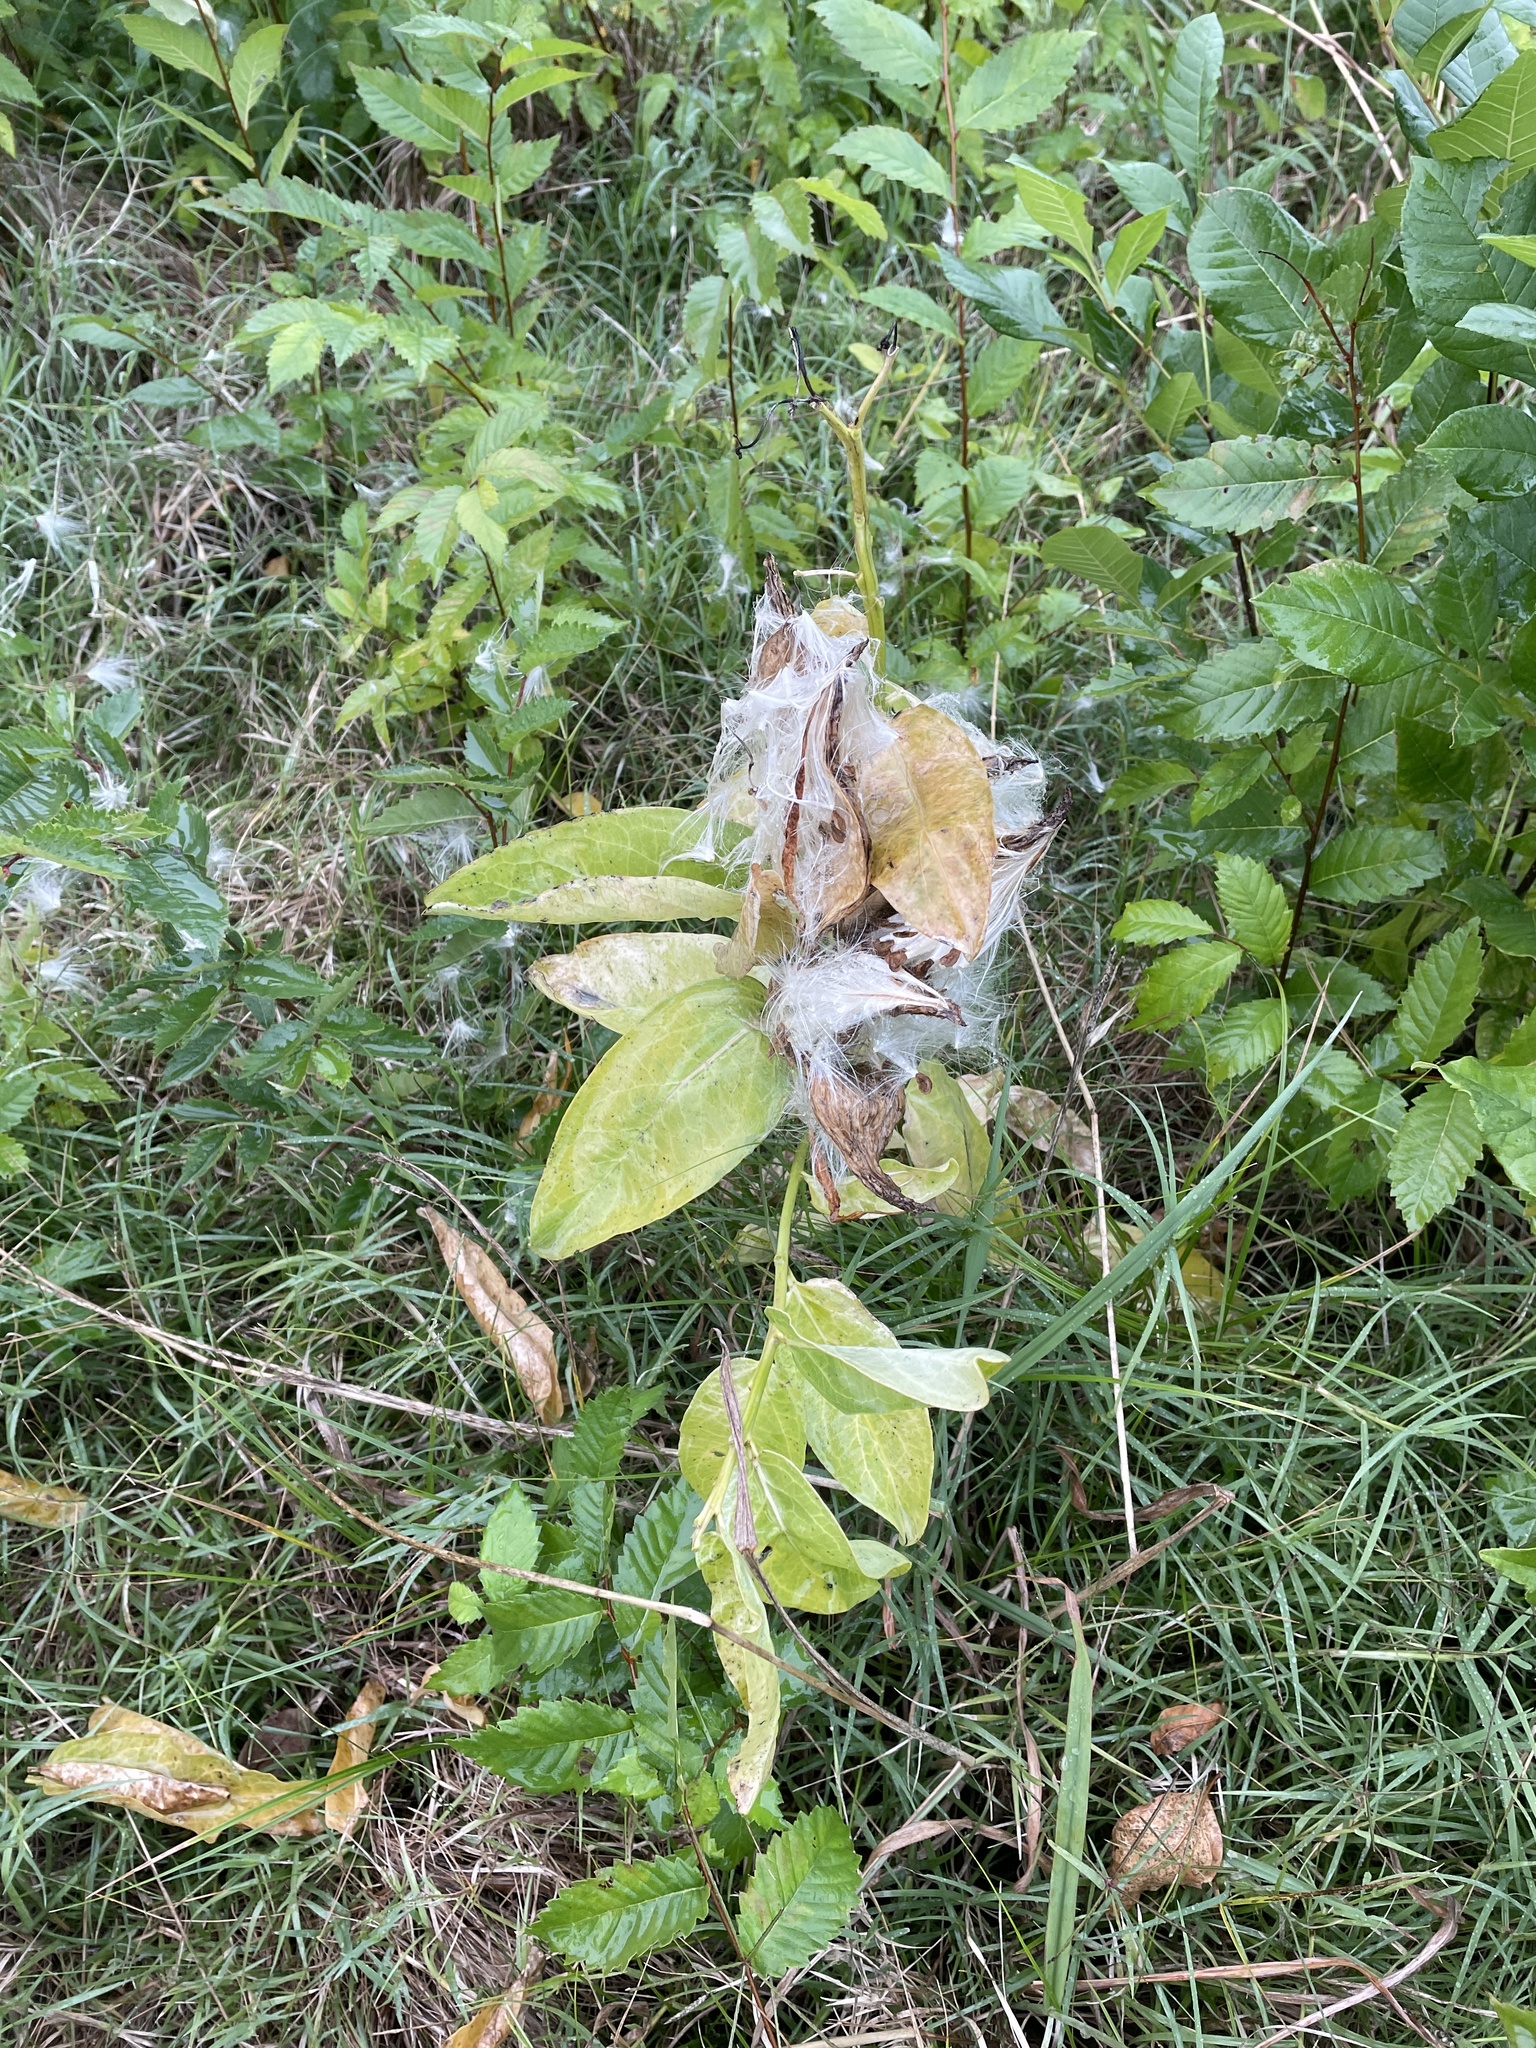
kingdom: Plantae
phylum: Tracheophyta
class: Magnoliopsida
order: Gentianales
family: Apocynaceae
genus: Asclepias
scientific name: Asclepias viridis
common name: Antelope-horns
